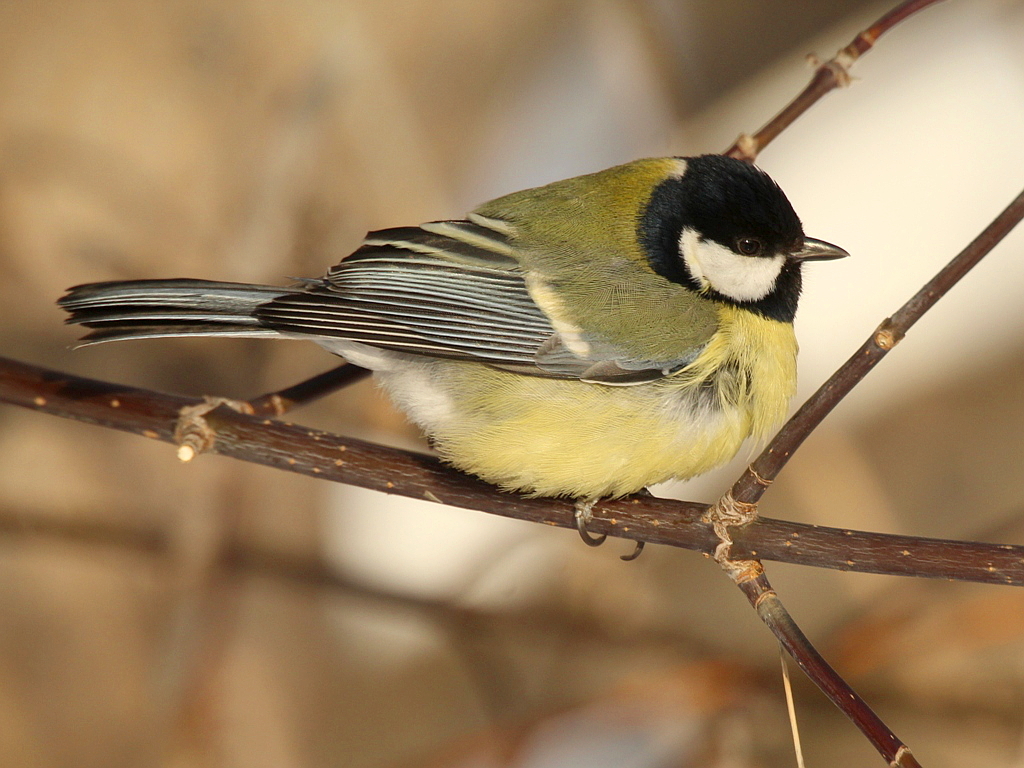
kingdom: Animalia
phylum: Chordata
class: Aves
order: Passeriformes
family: Paridae
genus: Parus
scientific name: Parus major
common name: Great tit
